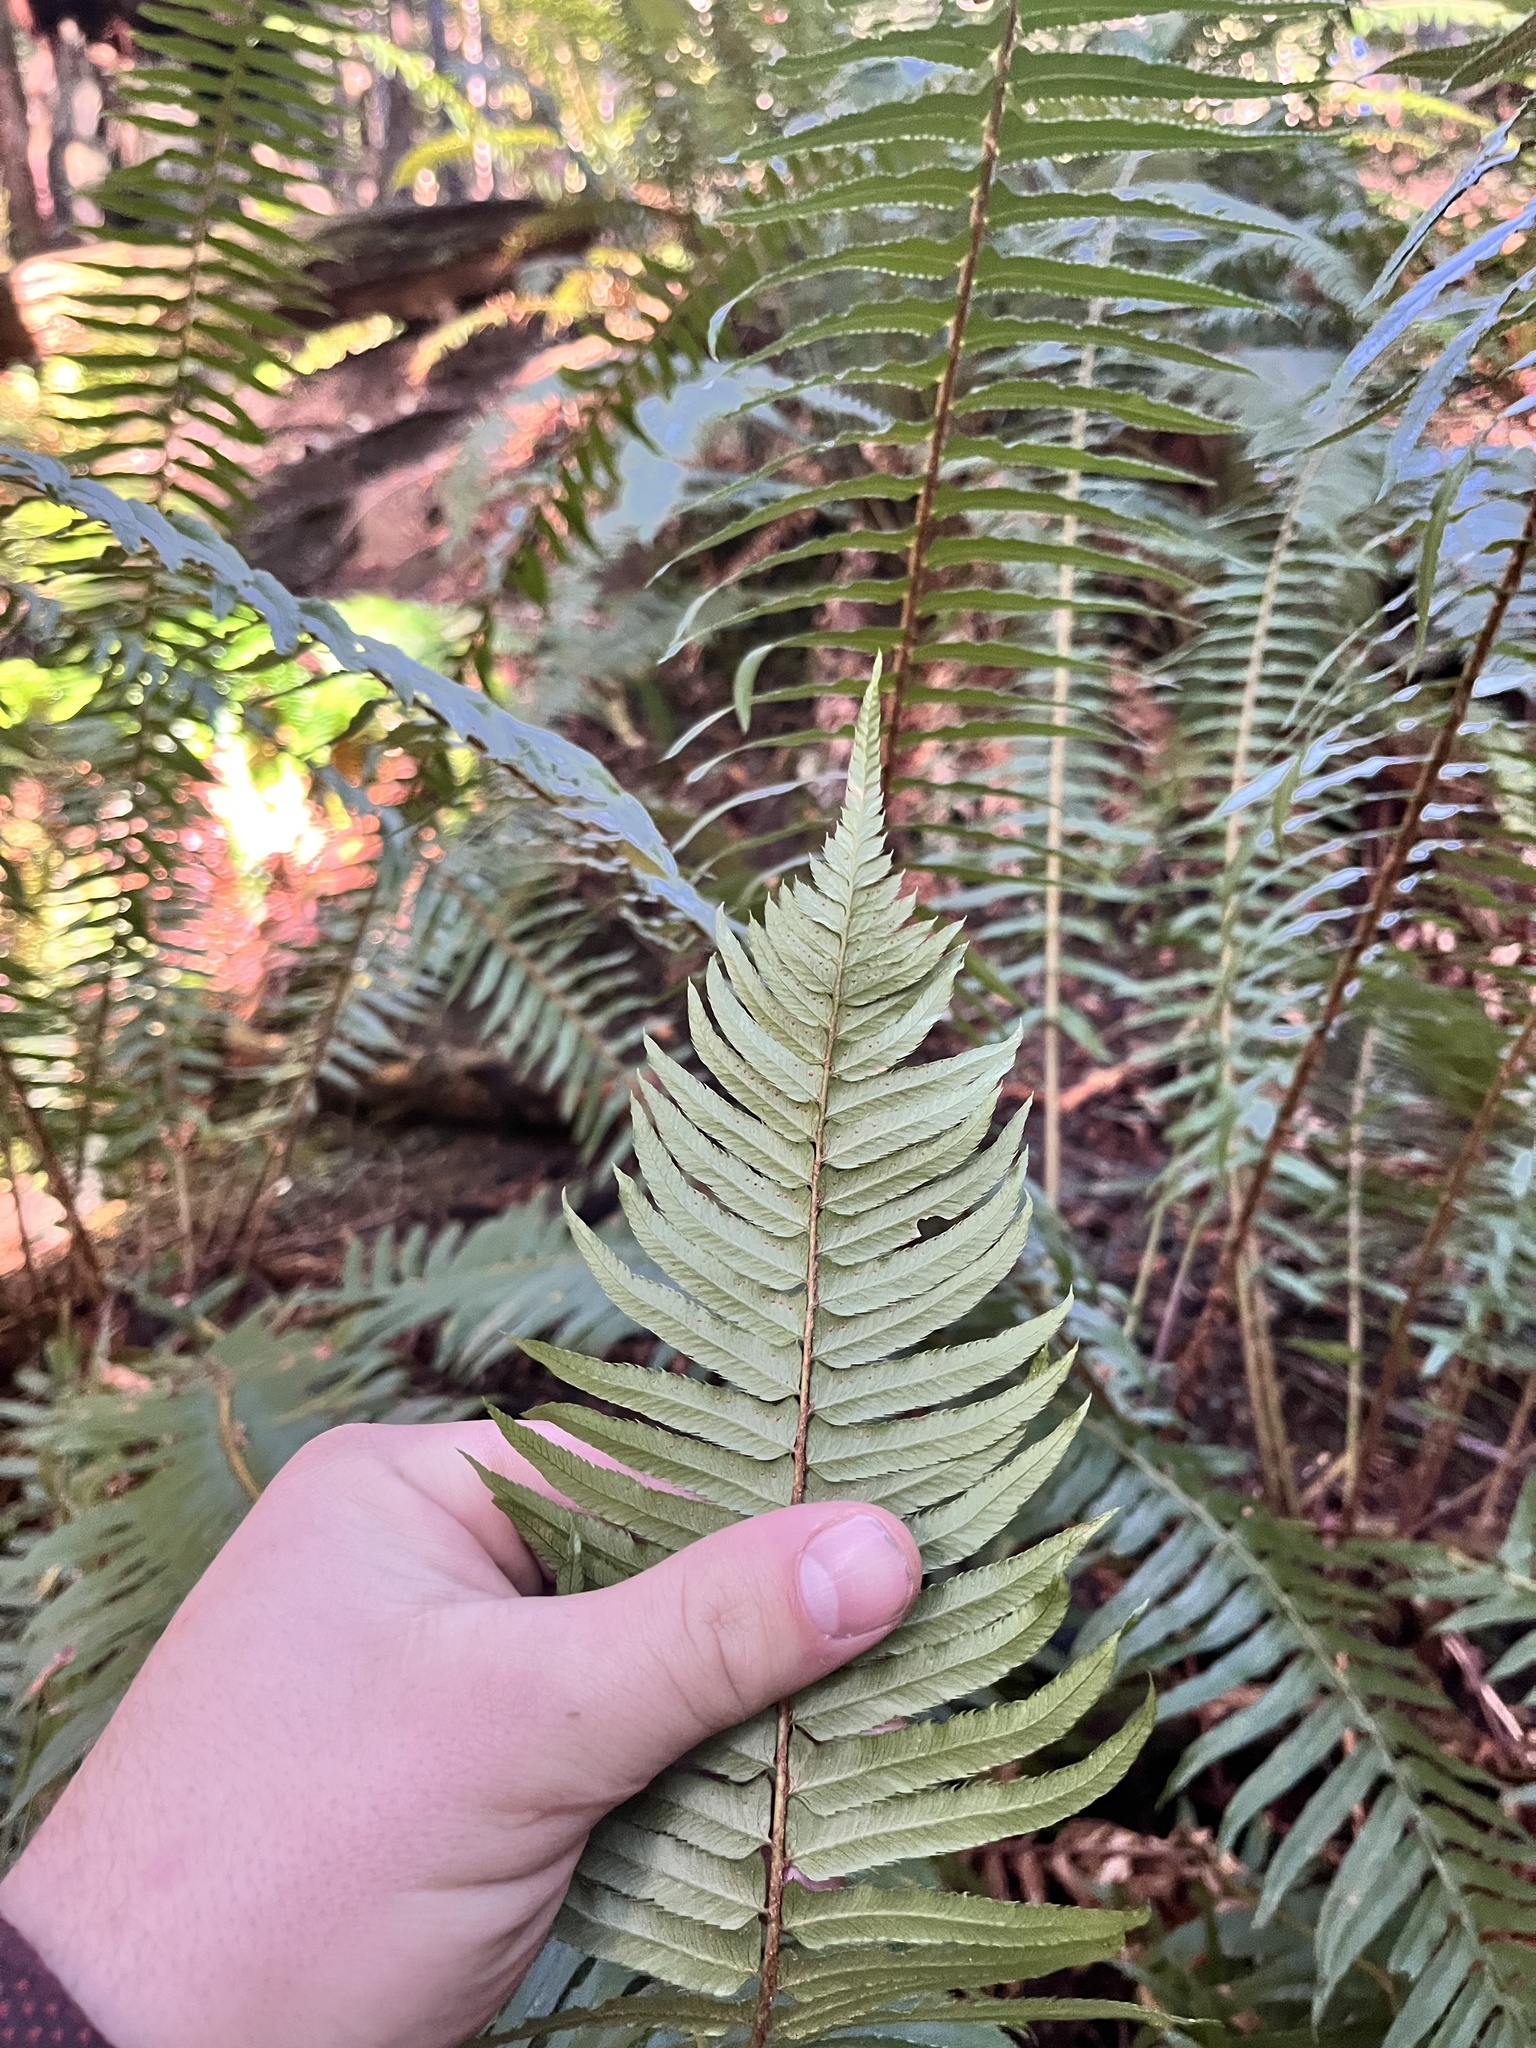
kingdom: Plantae
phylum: Tracheophyta
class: Polypodiopsida
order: Polypodiales
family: Dryopteridaceae
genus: Polystichum
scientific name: Polystichum munitum
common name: Western sword-fern
